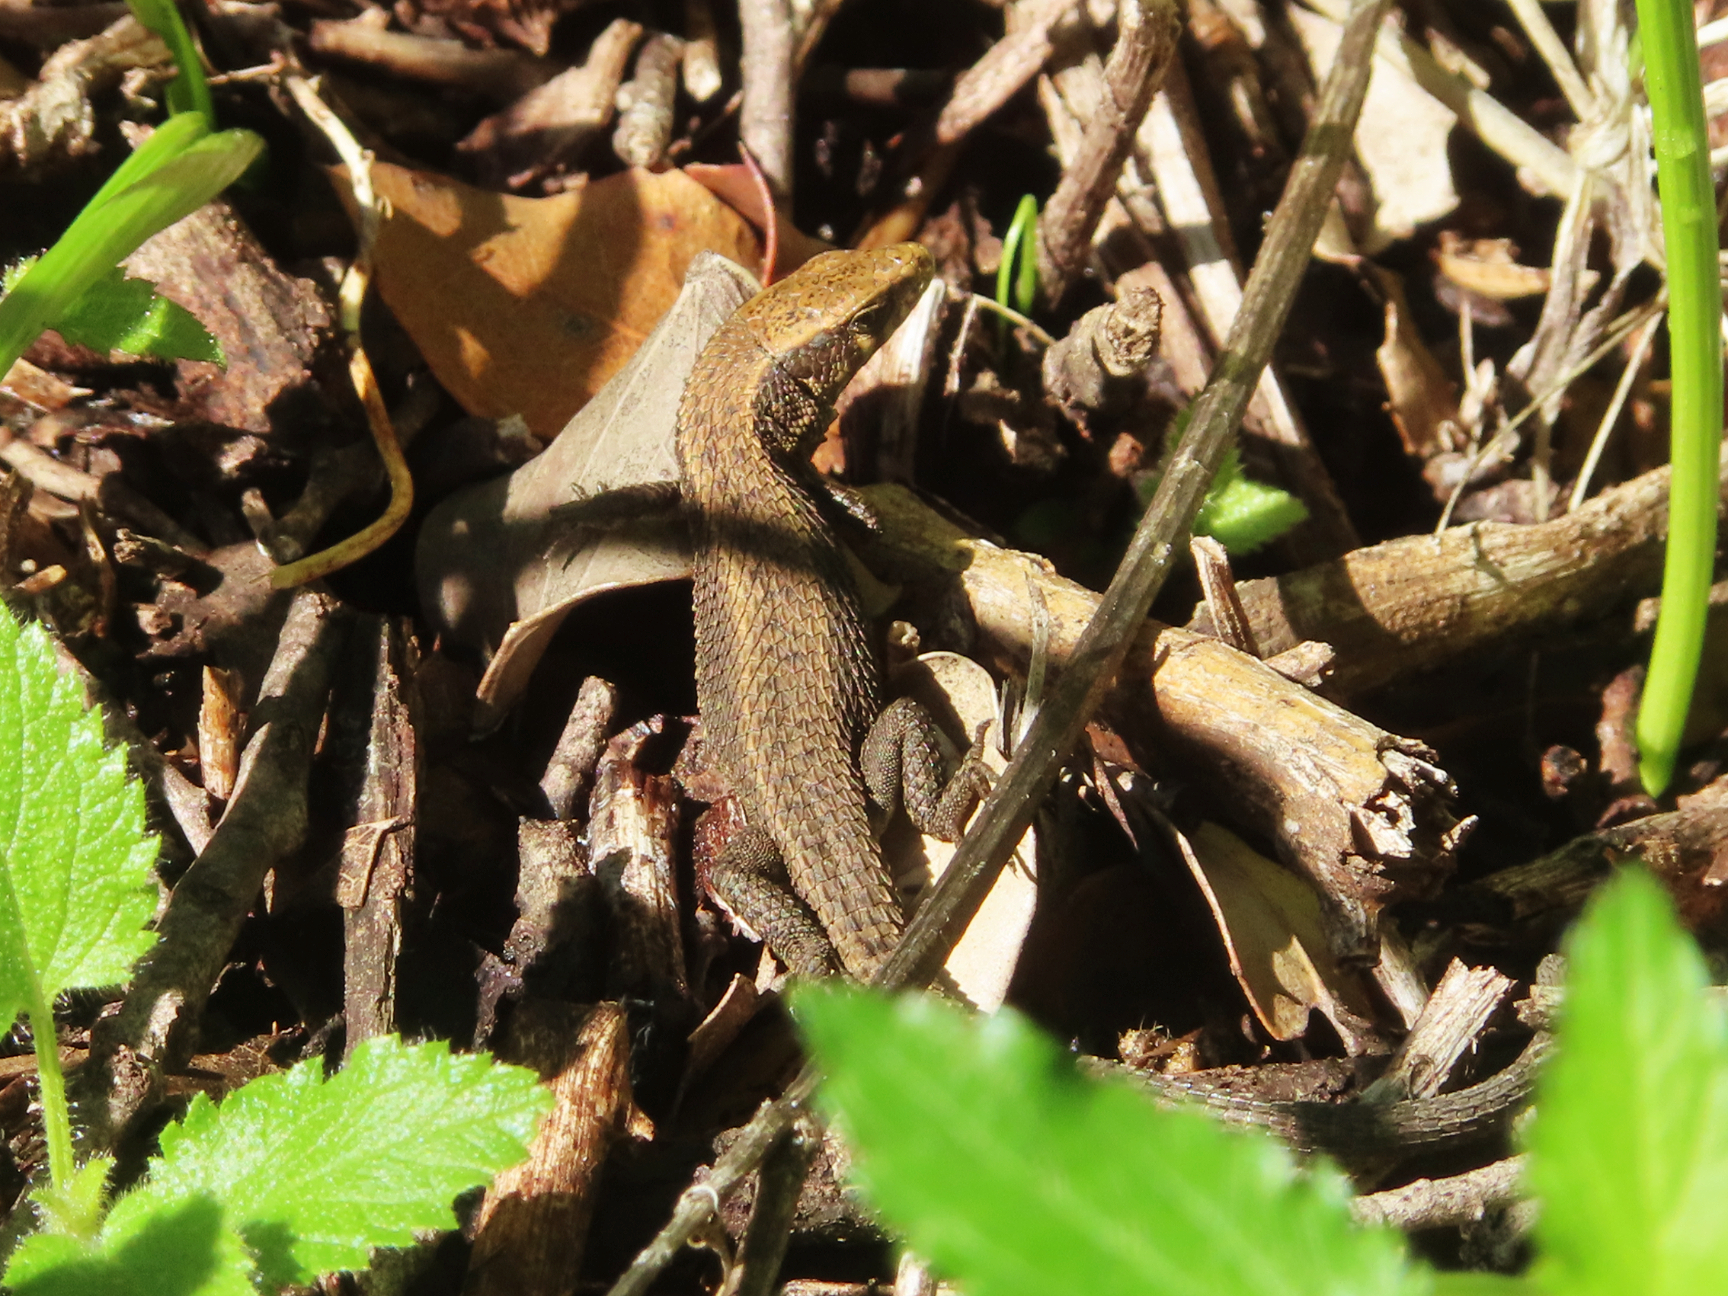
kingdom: Animalia
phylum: Chordata
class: Squamata
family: Lacertidae
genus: Algyroides
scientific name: Algyroides moreoticus
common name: Greek algyroides
